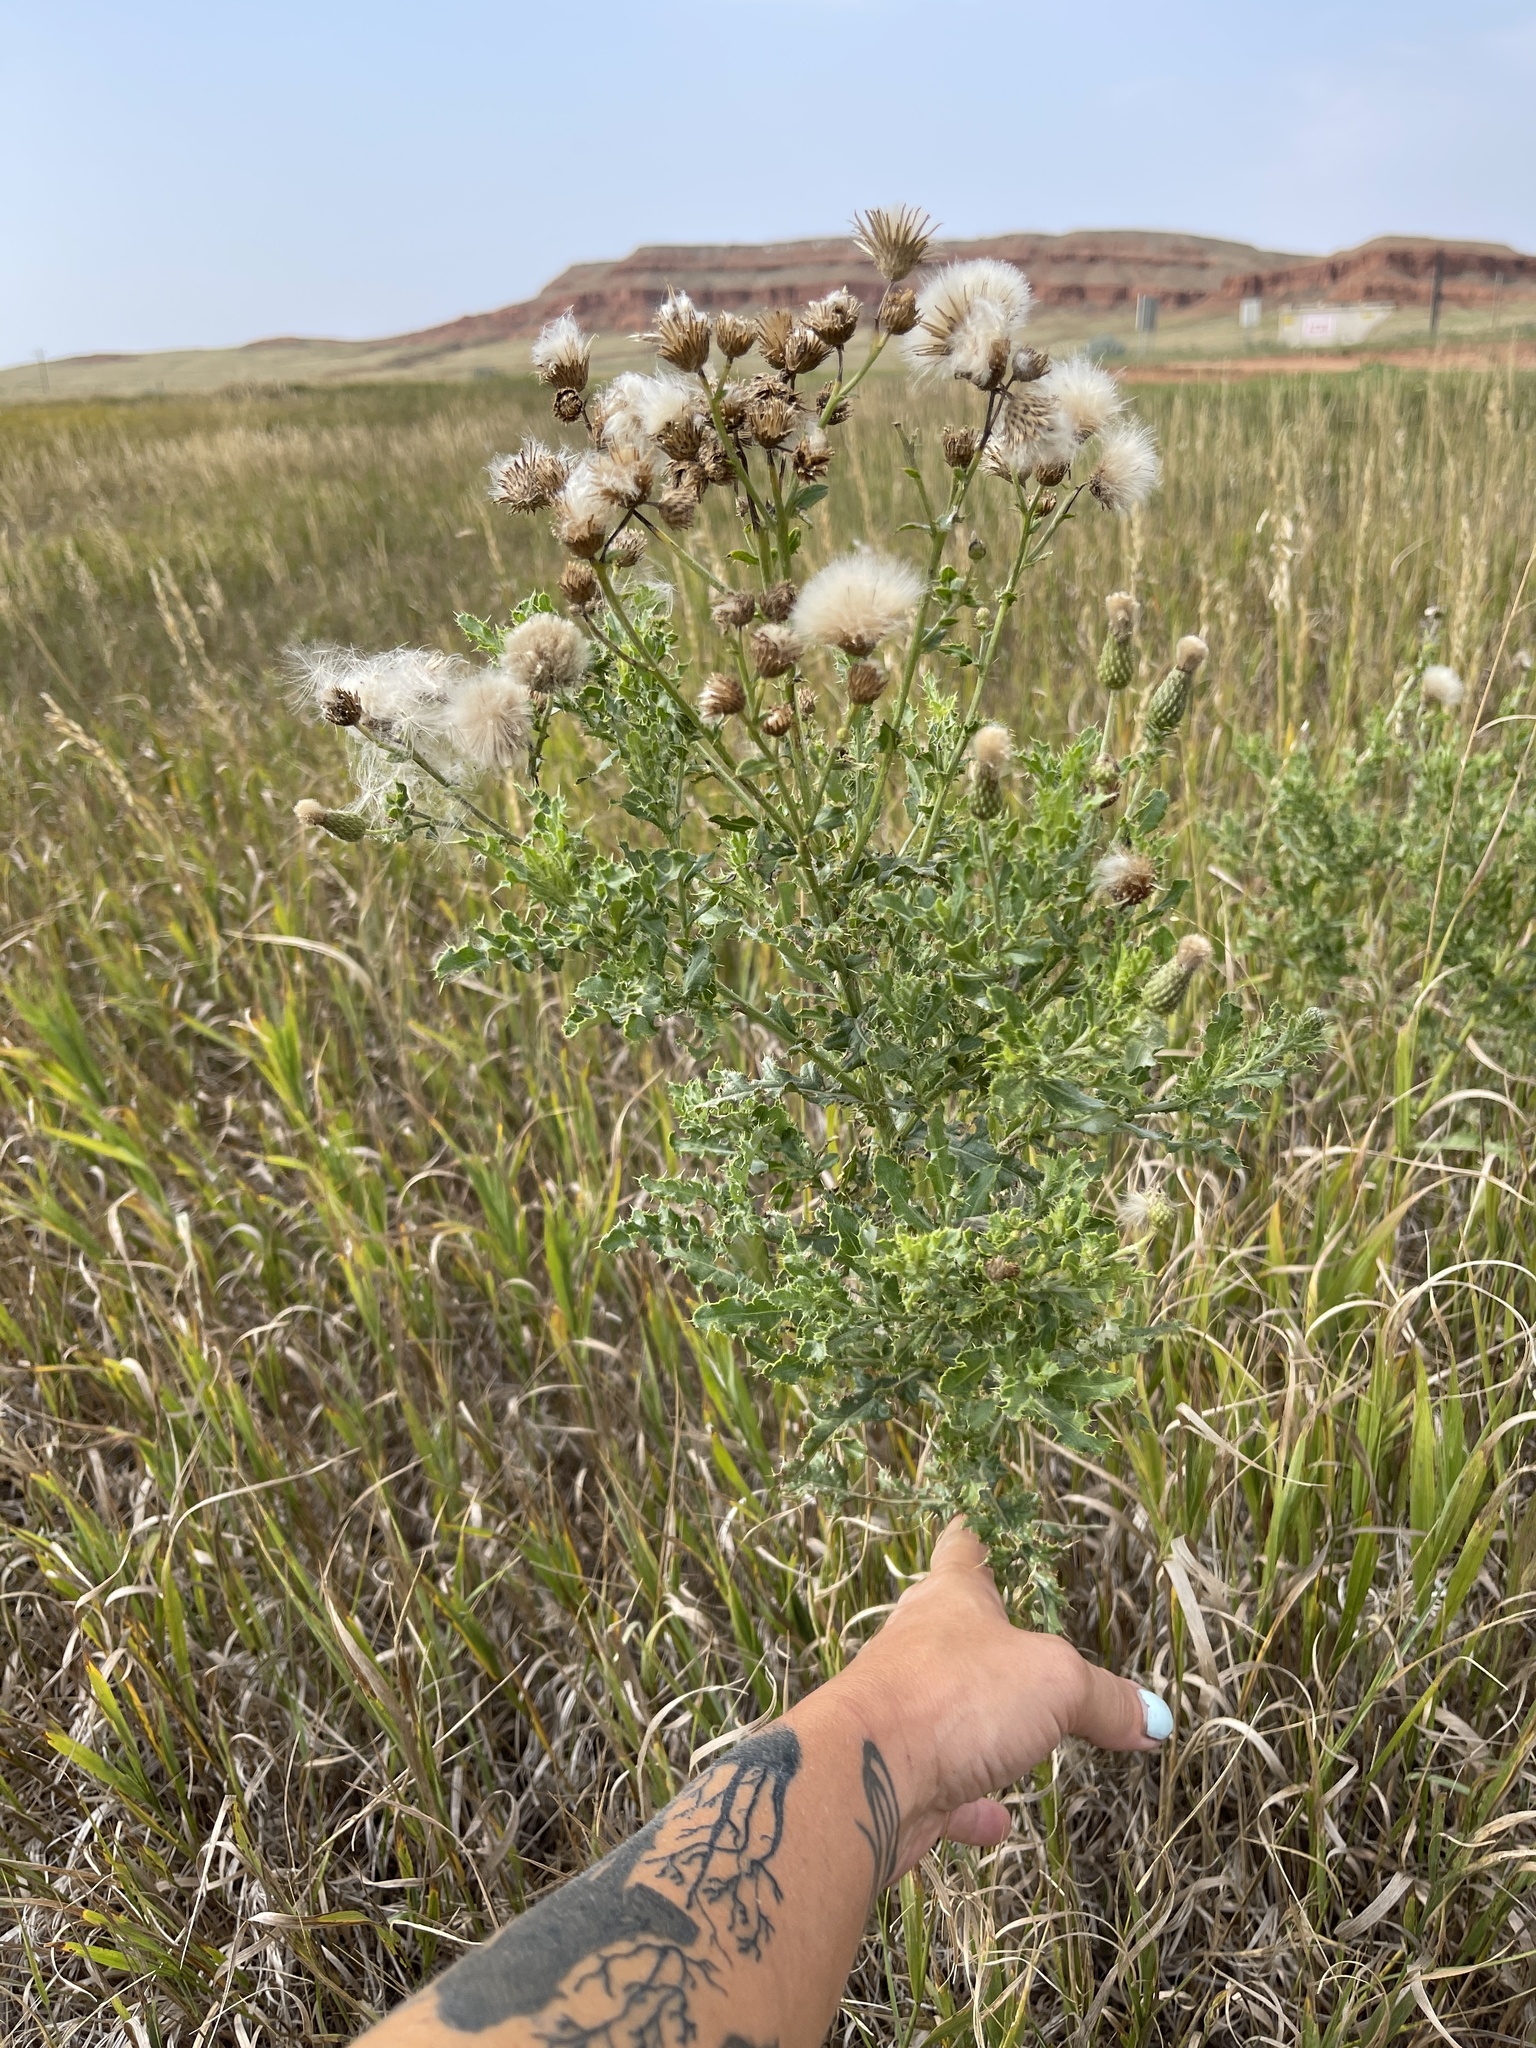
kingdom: Plantae
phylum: Tracheophyta
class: Magnoliopsida
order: Asterales
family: Asteraceae
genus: Cirsium
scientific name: Cirsium arvense
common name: Creeping thistle
